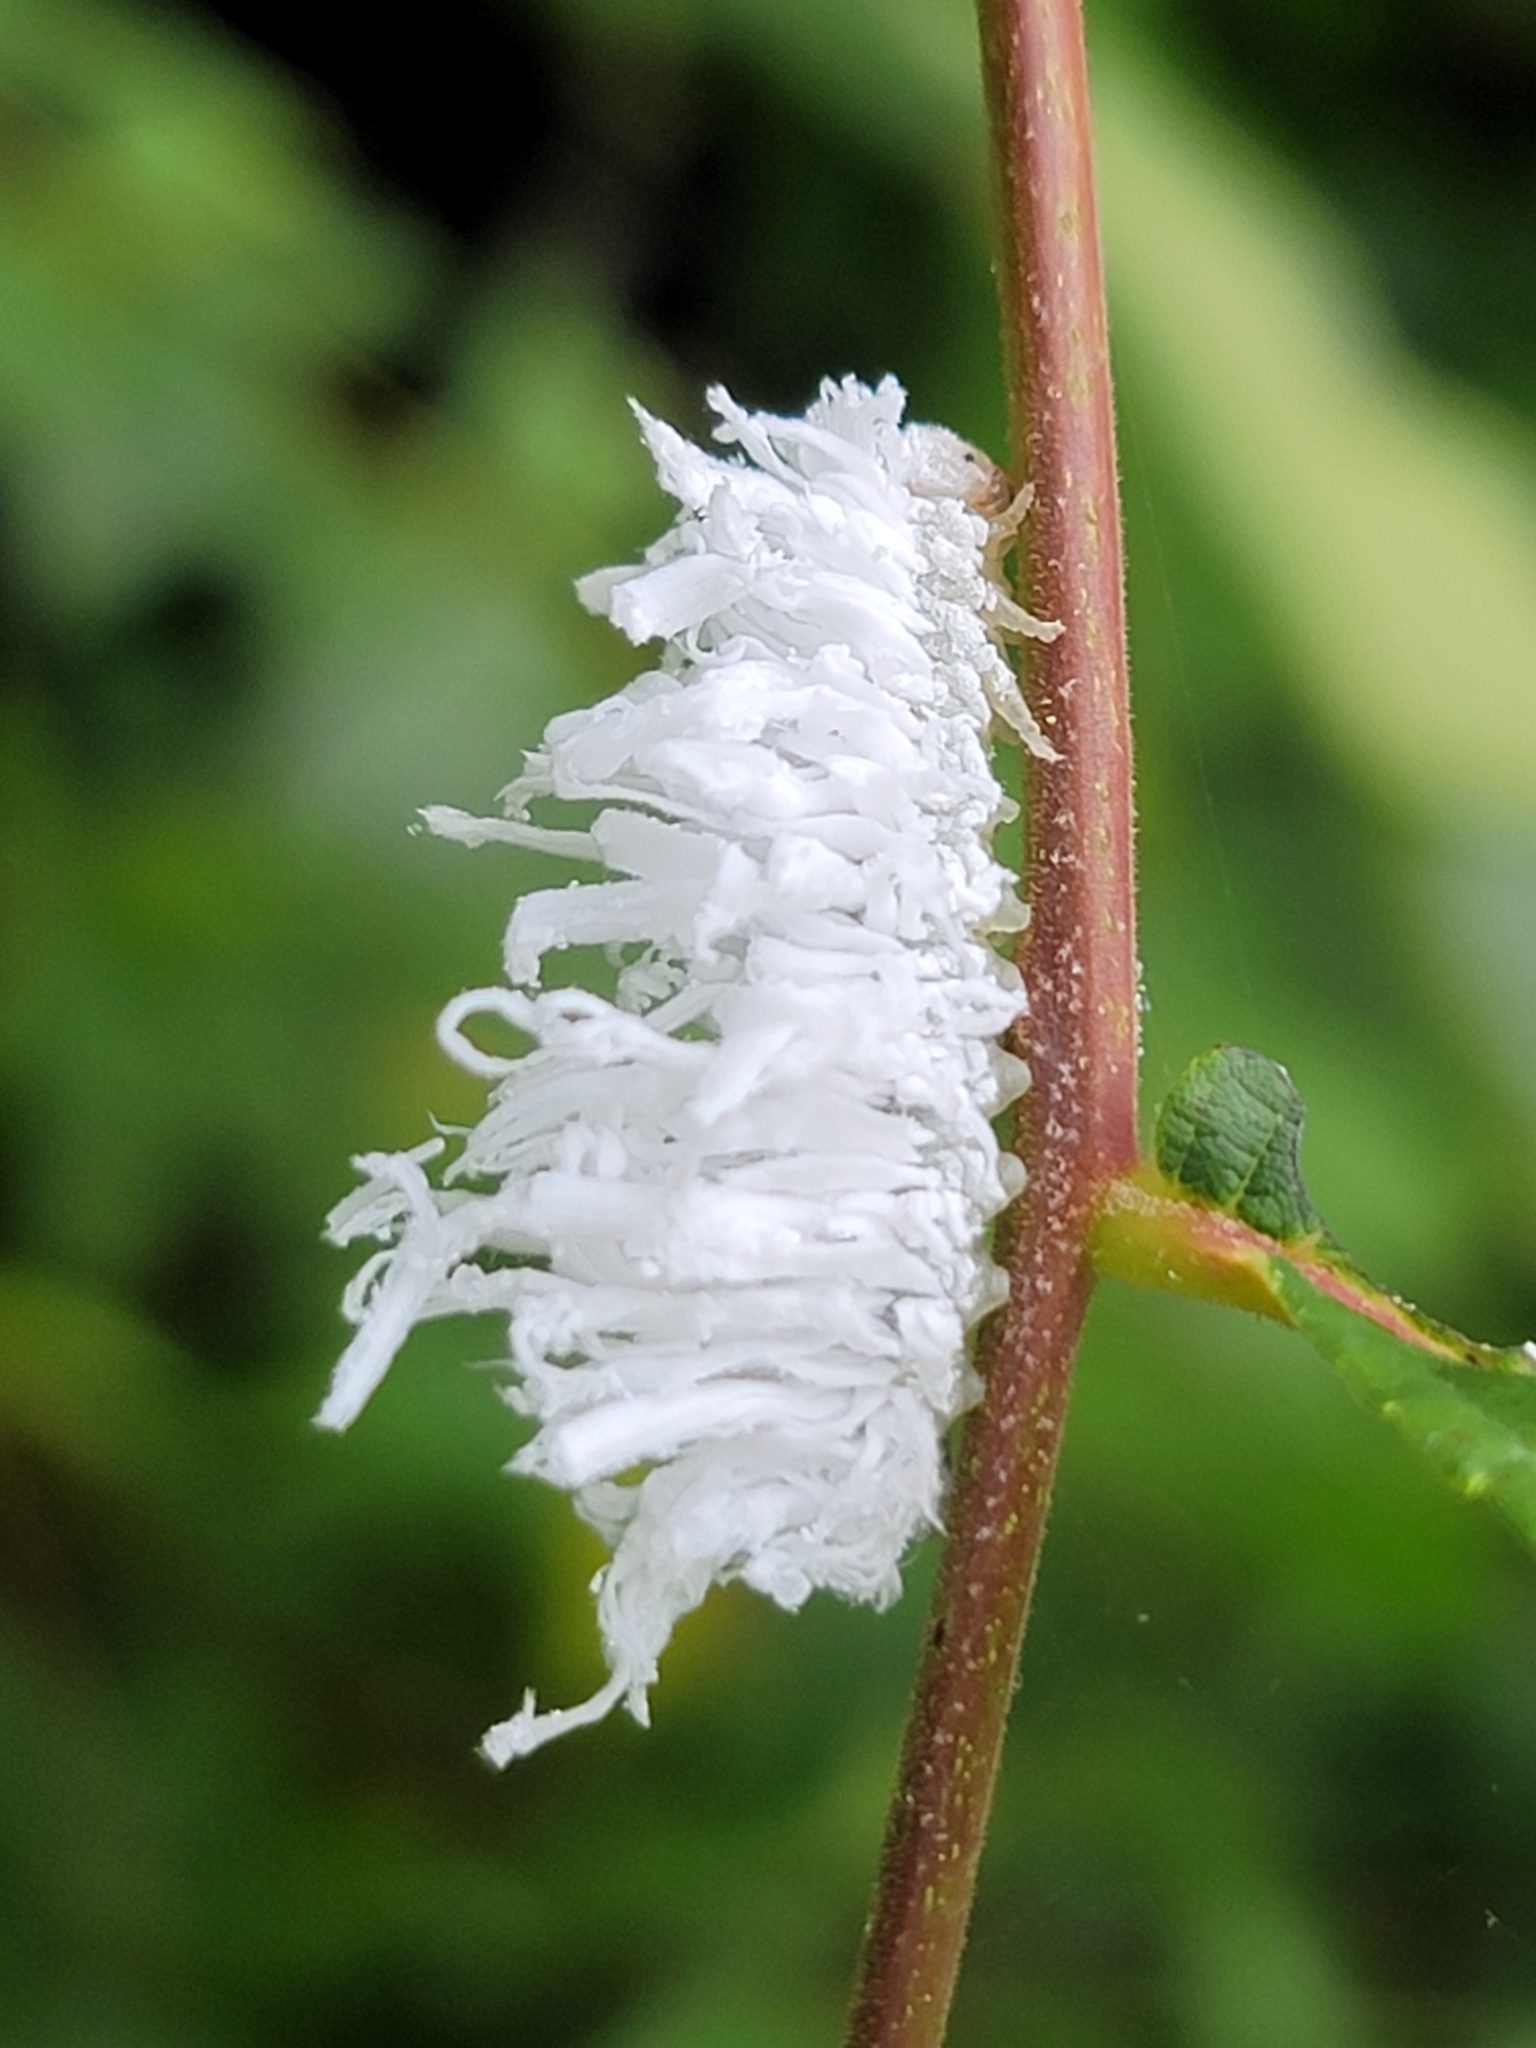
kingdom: Animalia
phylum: Arthropoda
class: Insecta
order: Hymenoptera
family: Tenthredinidae
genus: Eriocampa
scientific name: Eriocampa juglandis
